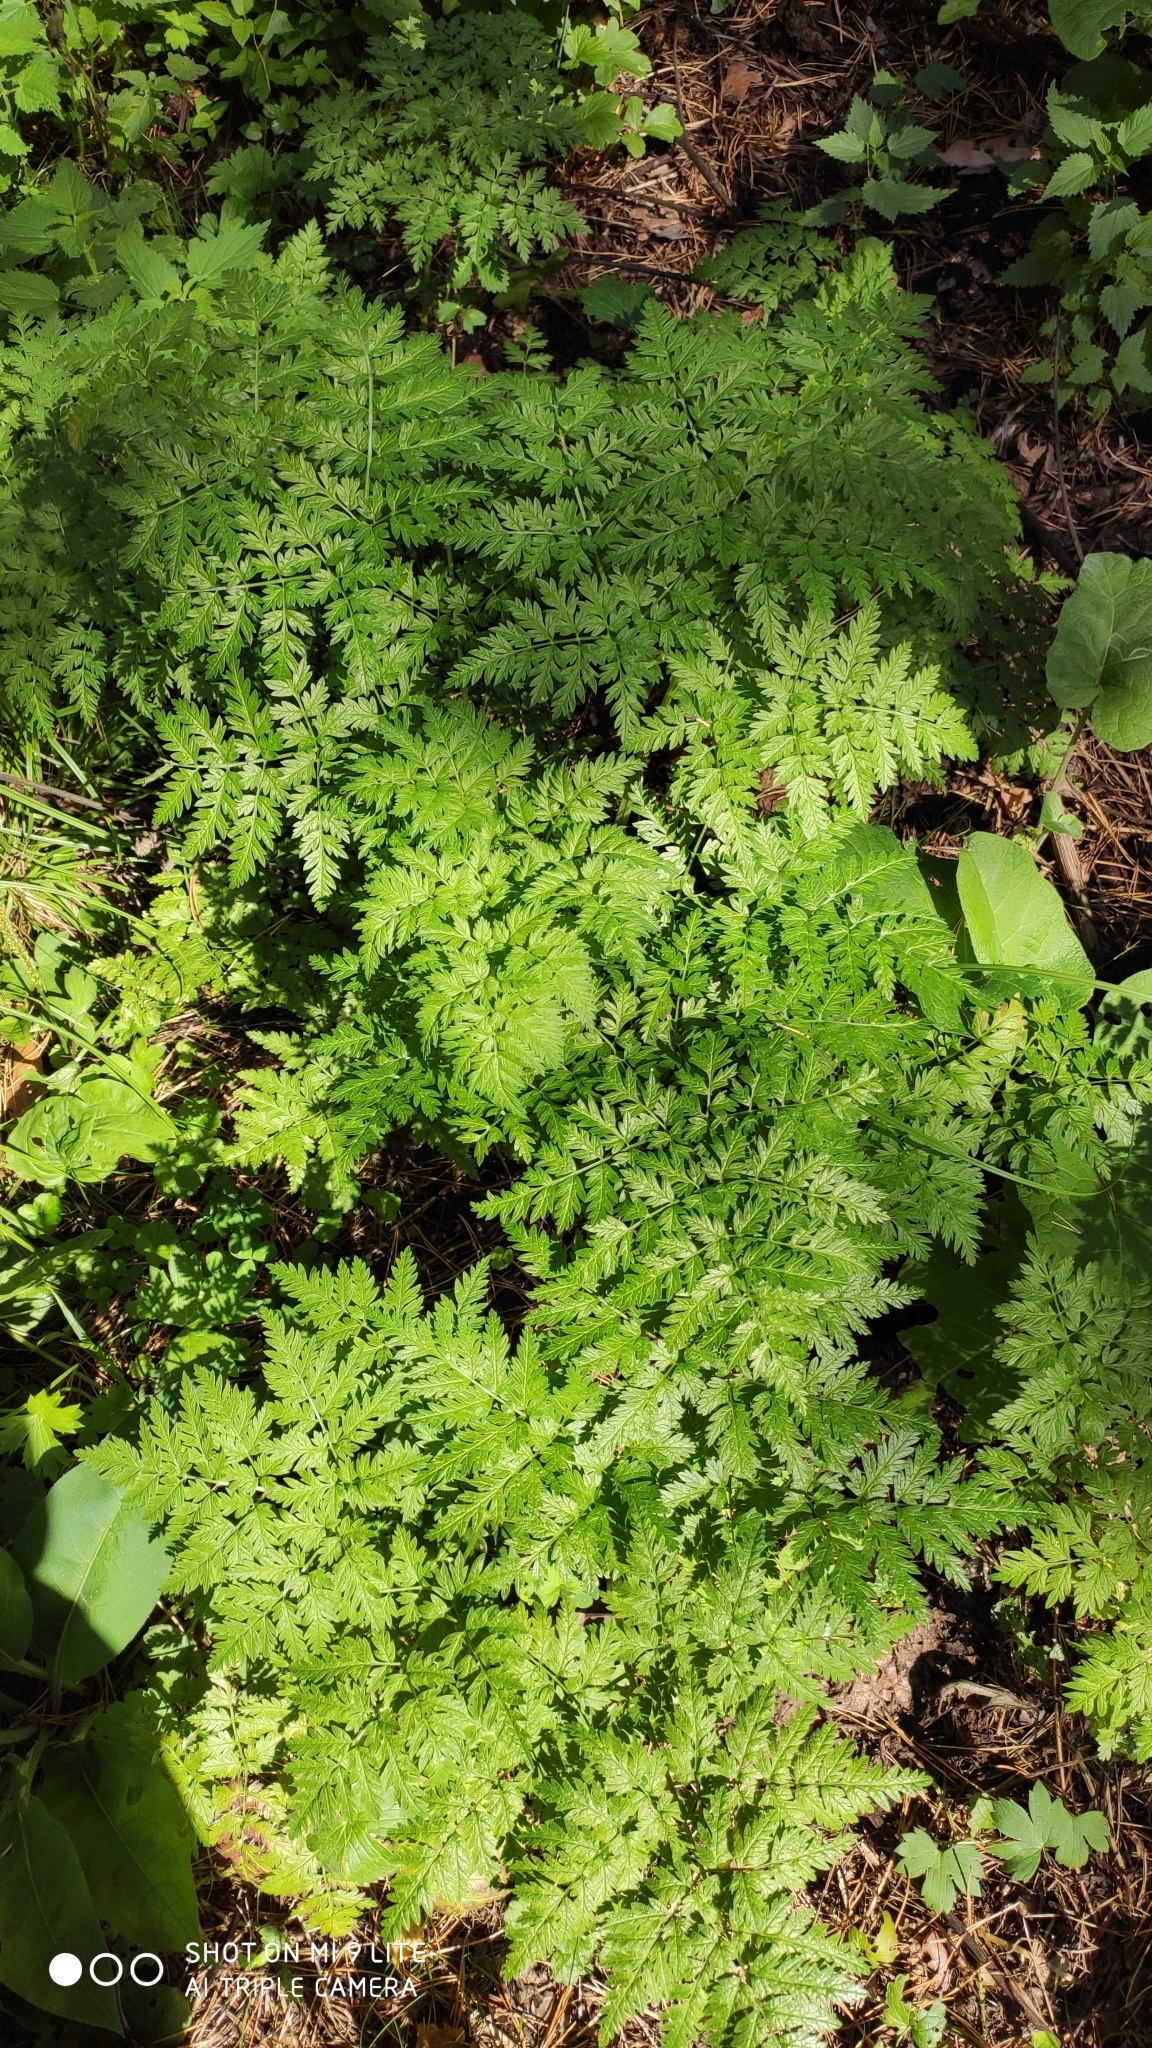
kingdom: Plantae
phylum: Tracheophyta
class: Magnoliopsida
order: Apiales
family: Apiaceae
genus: Anthriscus
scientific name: Anthriscus sylvestris
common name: Cow parsley
